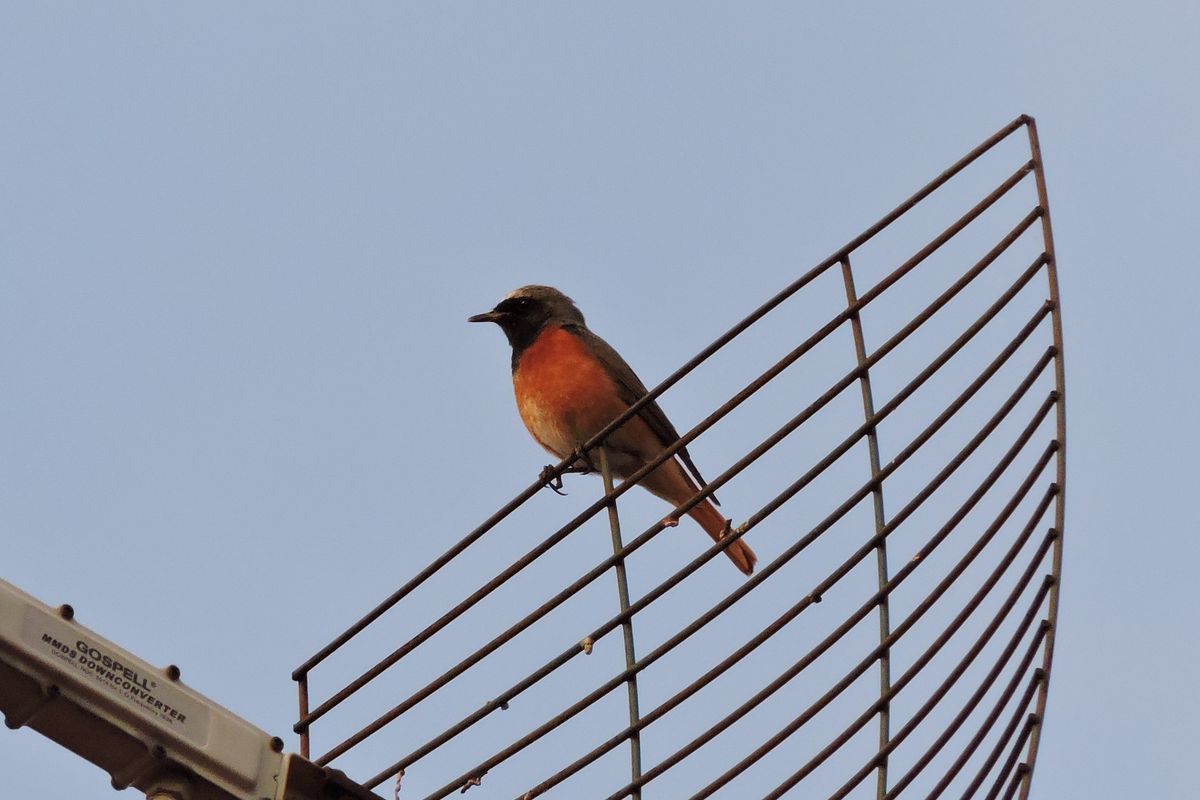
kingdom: Animalia
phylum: Chordata
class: Aves
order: Passeriformes
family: Muscicapidae
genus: Phoenicurus
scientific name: Phoenicurus phoenicurus
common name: Common redstart
